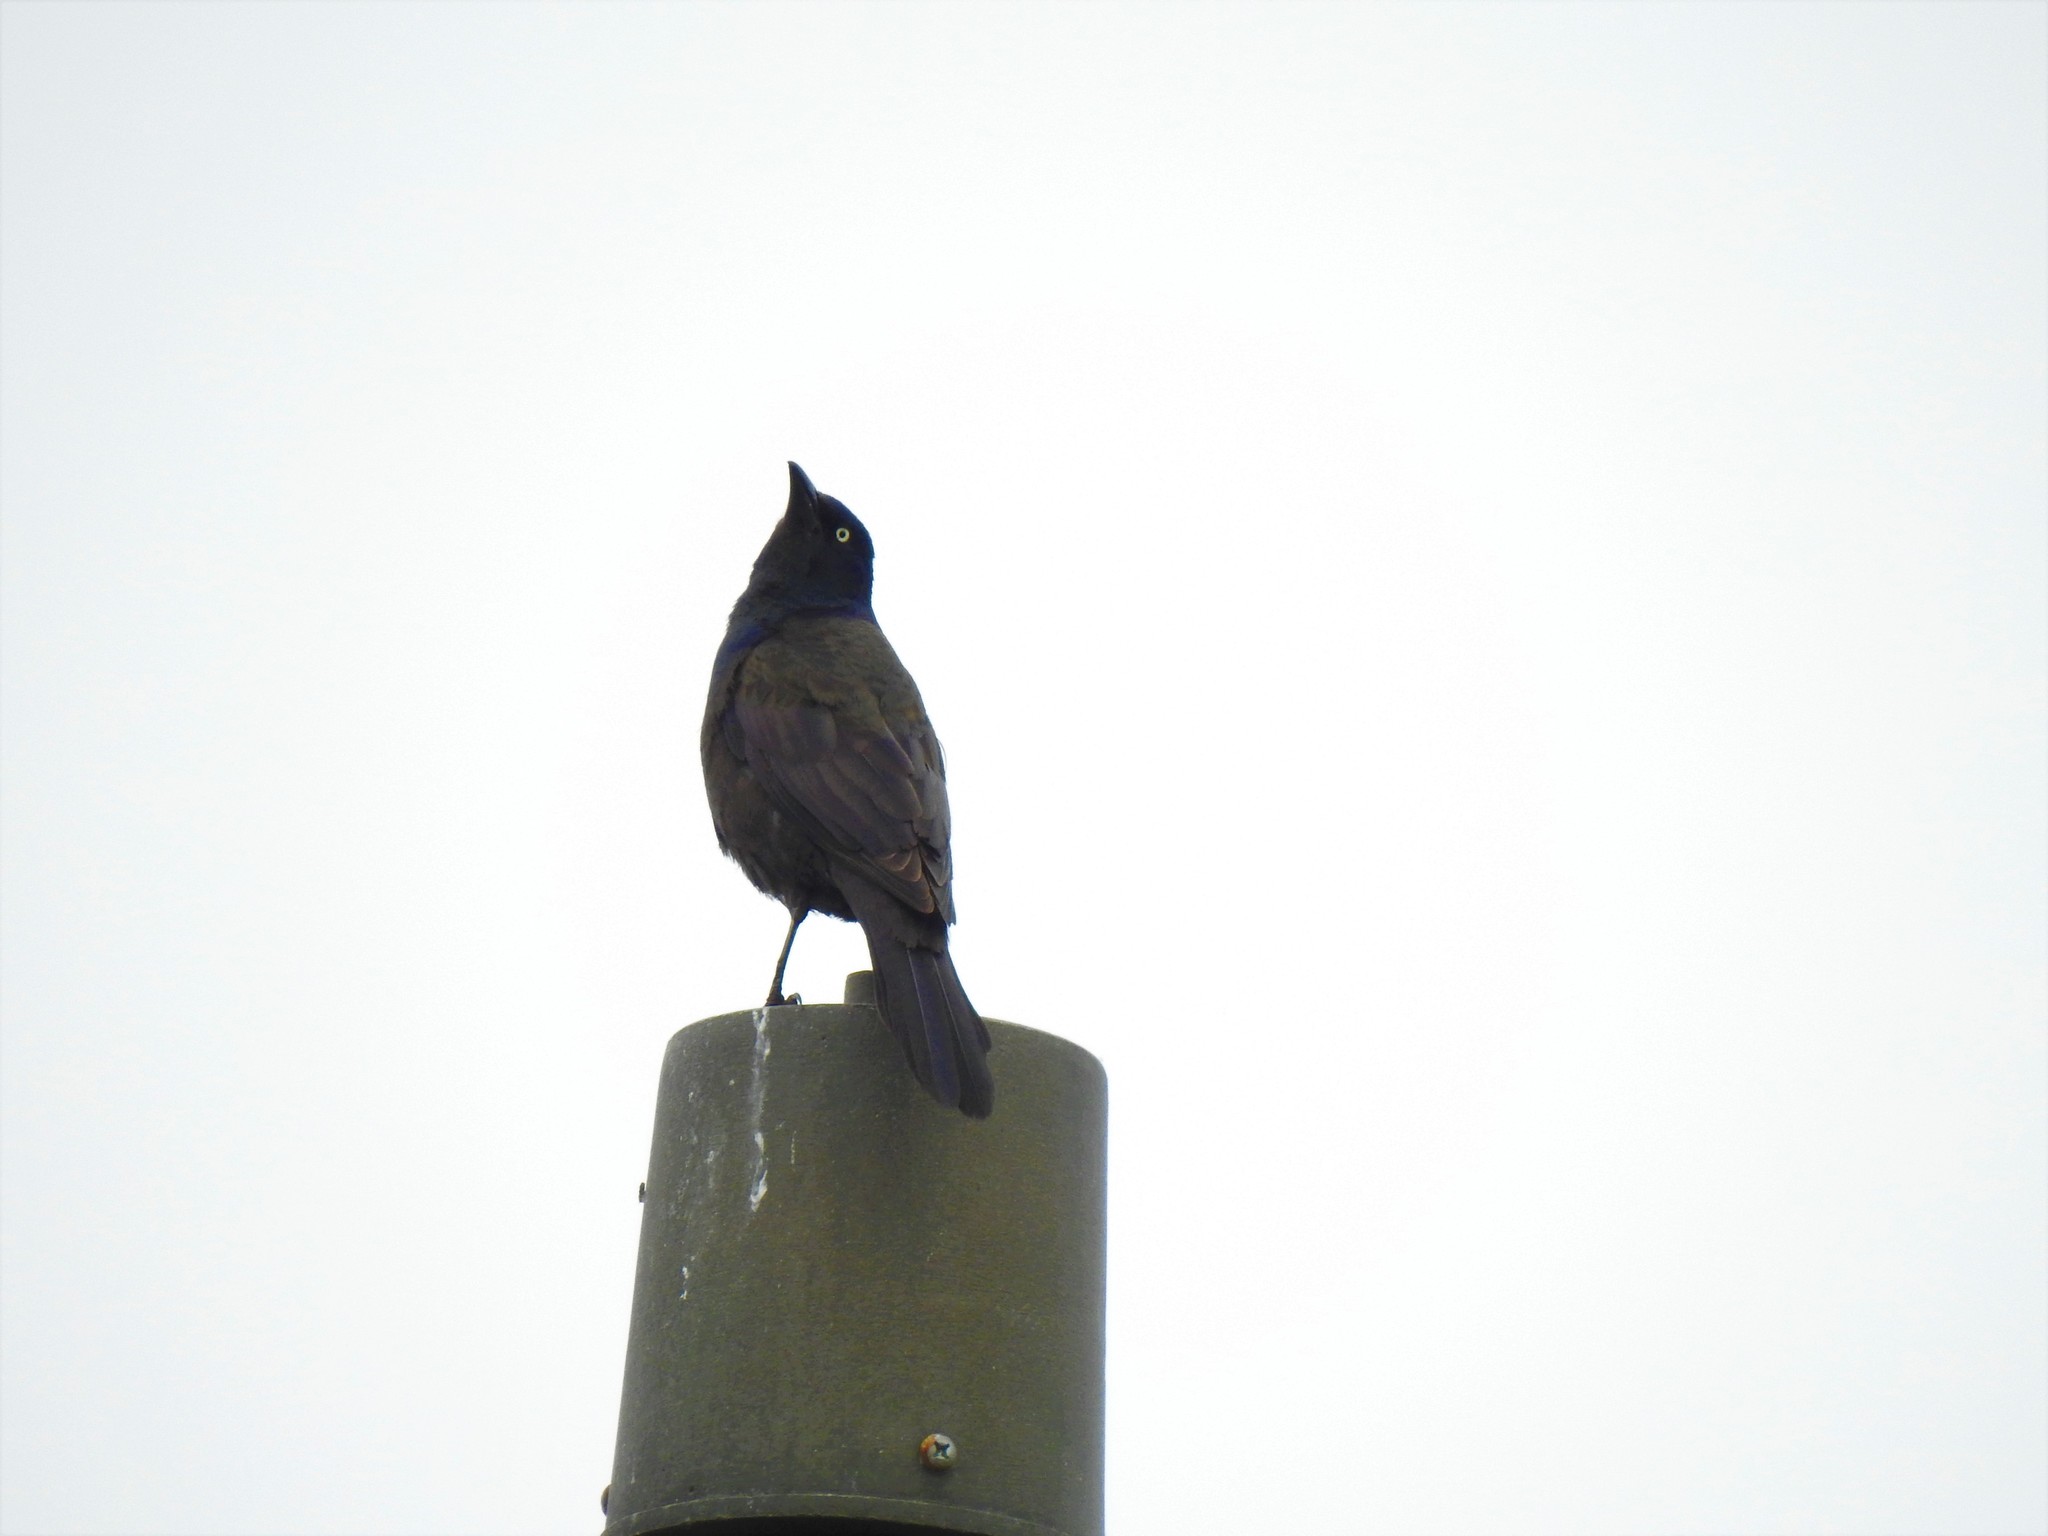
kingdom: Animalia
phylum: Chordata
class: Aves
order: Passeriformes
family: Icteridae
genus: Quiscalus
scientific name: Quiscalus quiscula
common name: Common grackle
